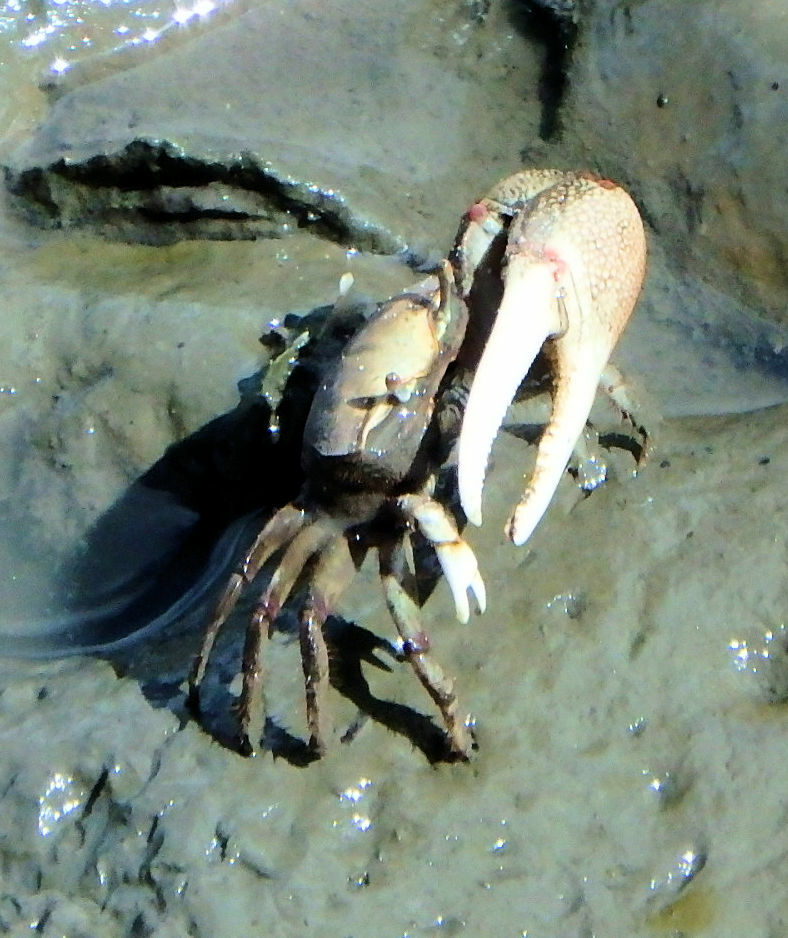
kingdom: Animalia
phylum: Arthropoda
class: Malacostraca
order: Decapoda
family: Ocypodidae
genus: Leptuca
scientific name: Leptuca pugilator
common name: Atlantic sand fiddler crab
